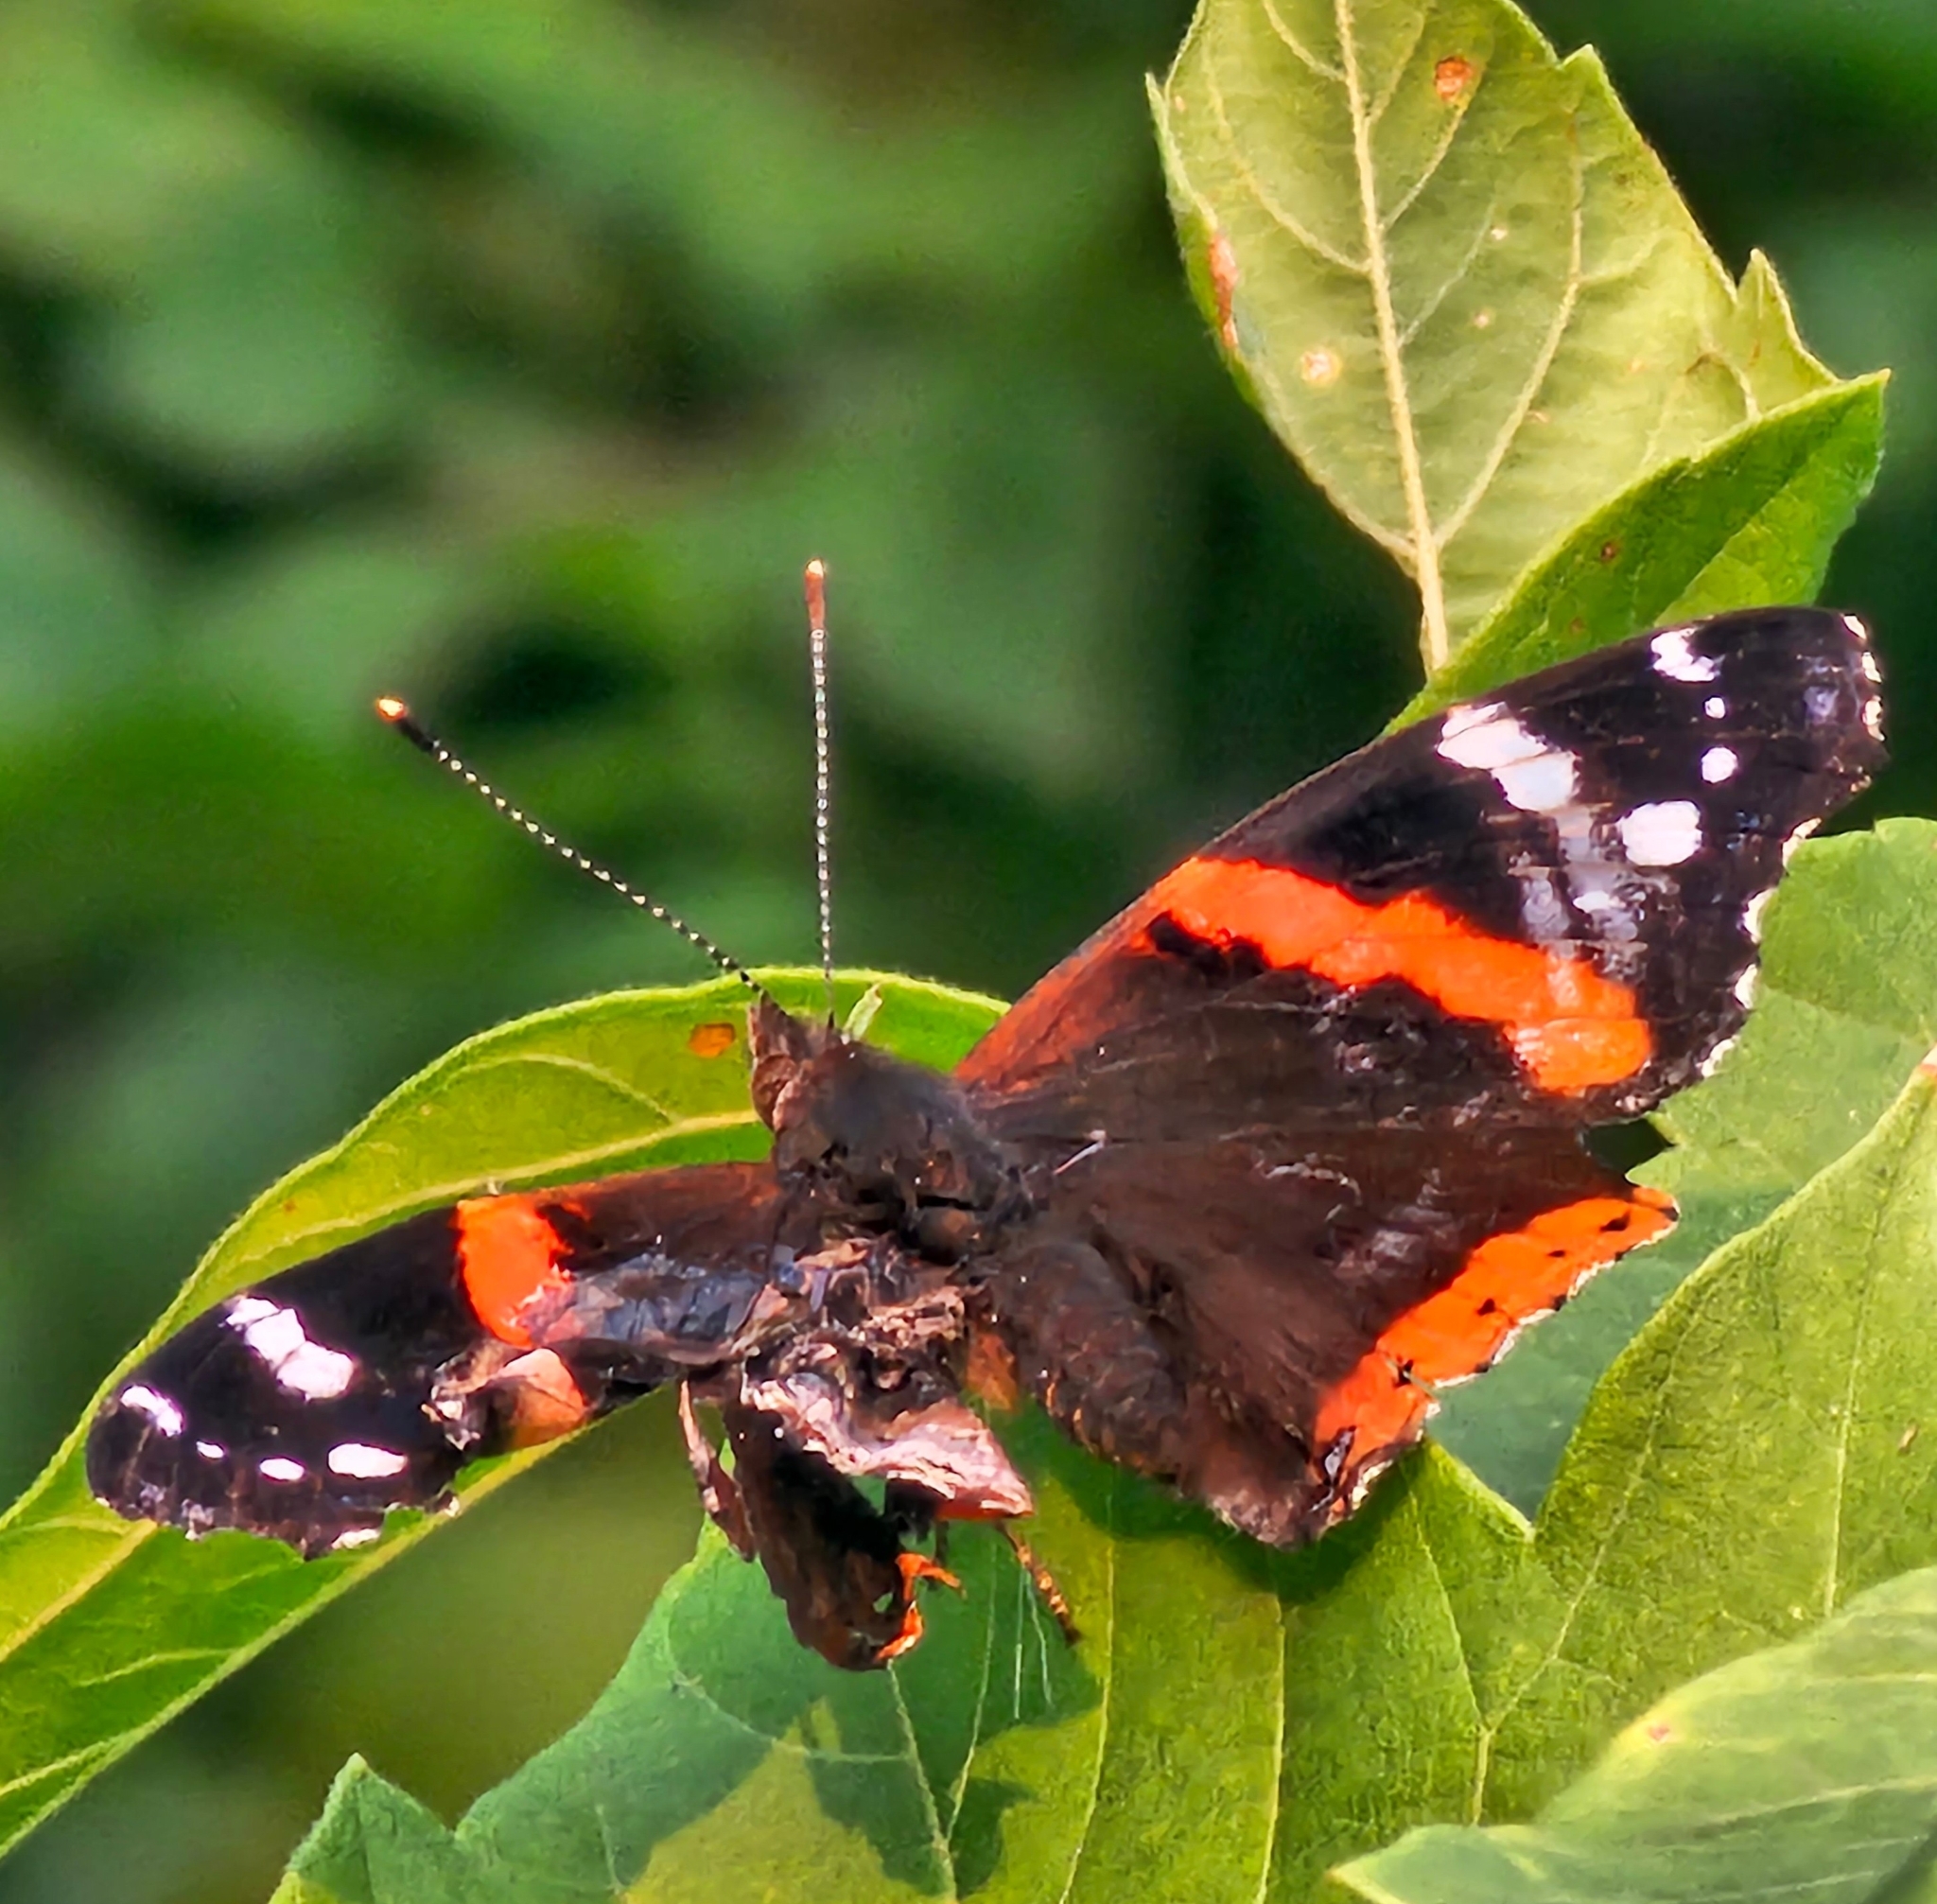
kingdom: Animalia
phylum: Arthropoda
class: Insecta
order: Lepidoptera
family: Nymphalidae
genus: Vanessa
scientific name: Vanessa atalanta
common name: Red admiral
